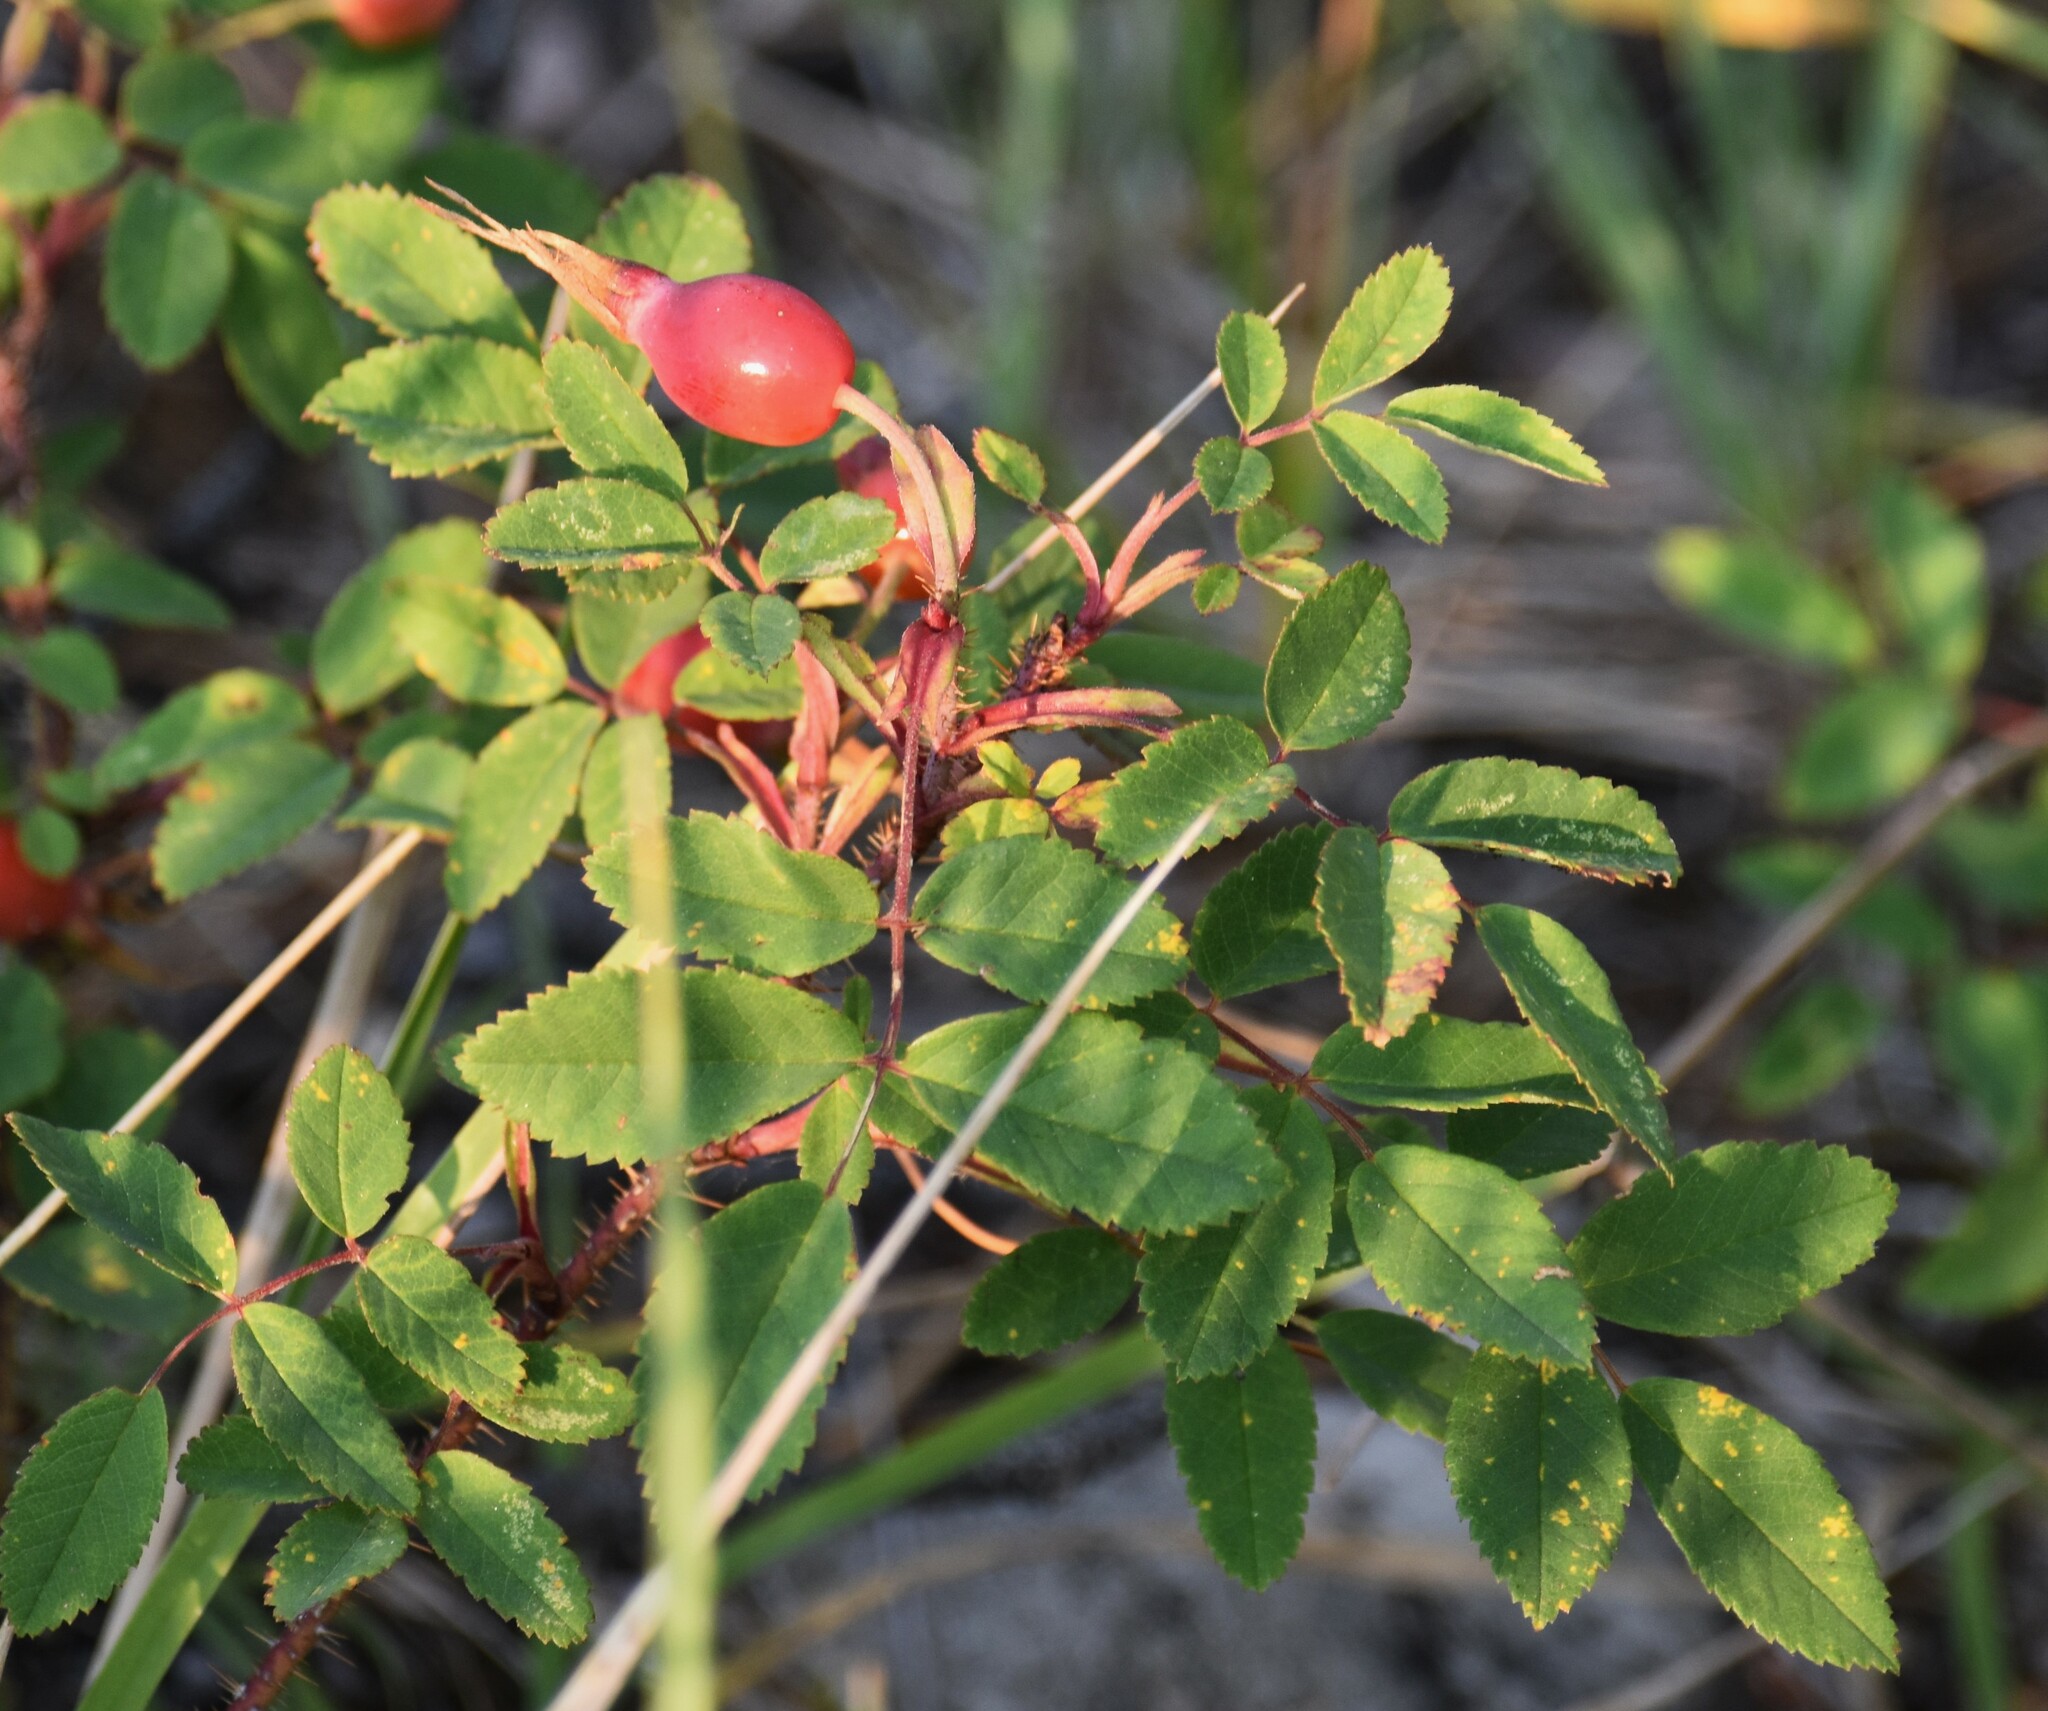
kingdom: Plantae
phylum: Tracheophyta
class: Magnoliopsida
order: Rosales
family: Rosaceae
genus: Rosa
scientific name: Rosa acicularis
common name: Prickly rose
